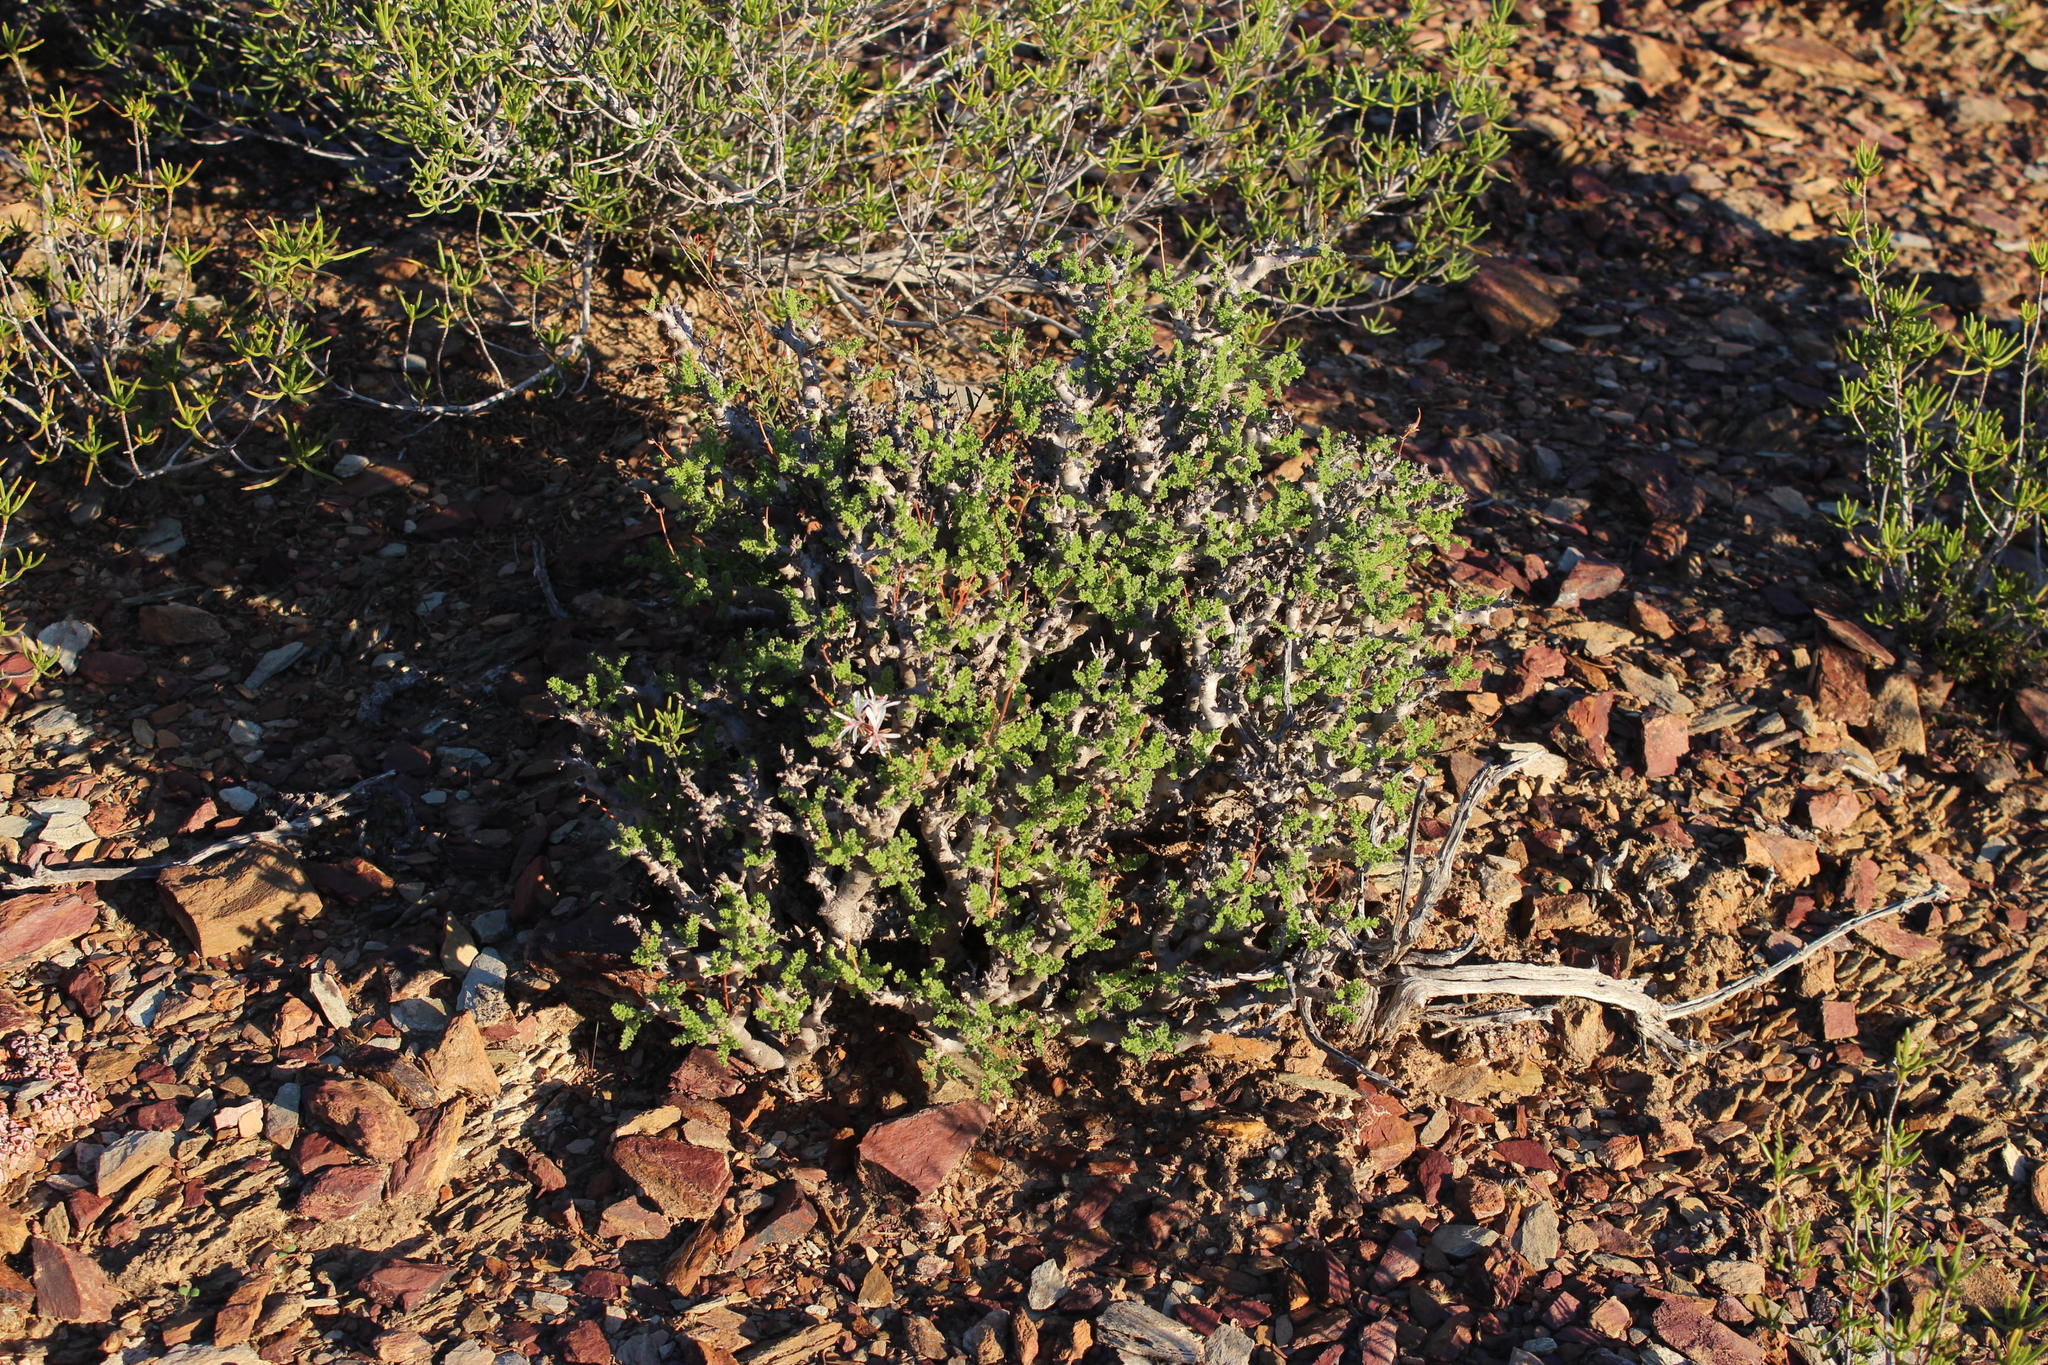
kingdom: Plantae
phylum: Tracheophyta
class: Magnoliopsida
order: Geraniales
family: Geraniaceae
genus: Pelargonium
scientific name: Pelargonium alternans
